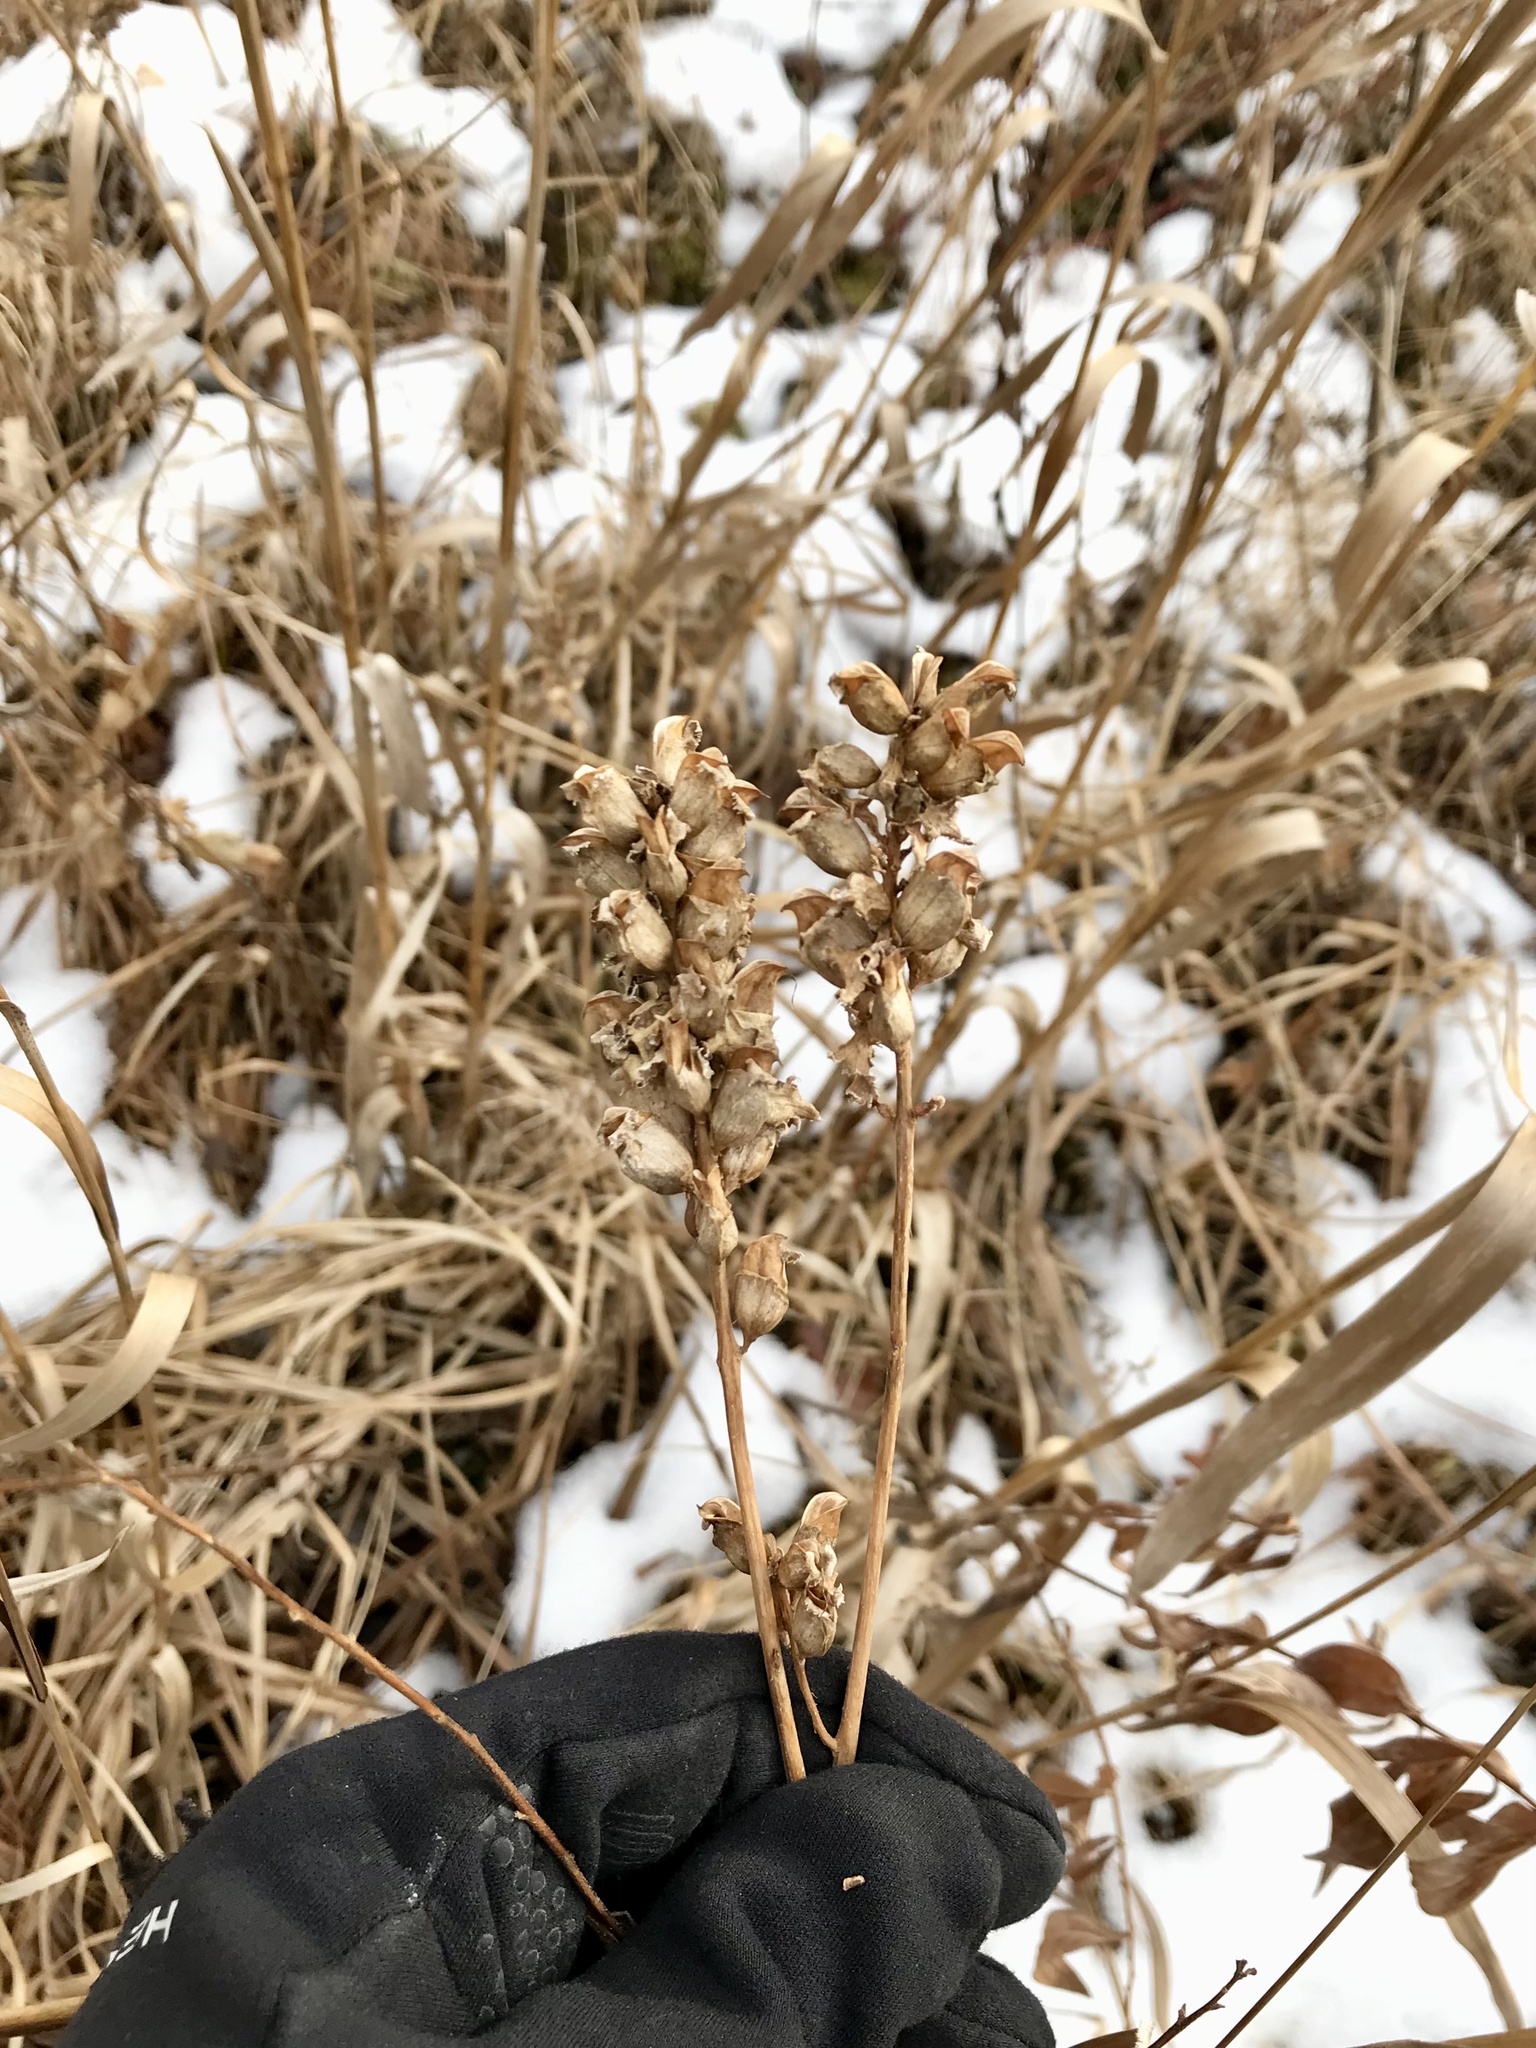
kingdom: Plantae
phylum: Tracheophyta
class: Magnoliopsida
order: Lamiales
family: Orobanchaceae
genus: Pedicularis
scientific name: Pedicularis lanceolata
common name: Swamp lousewort
